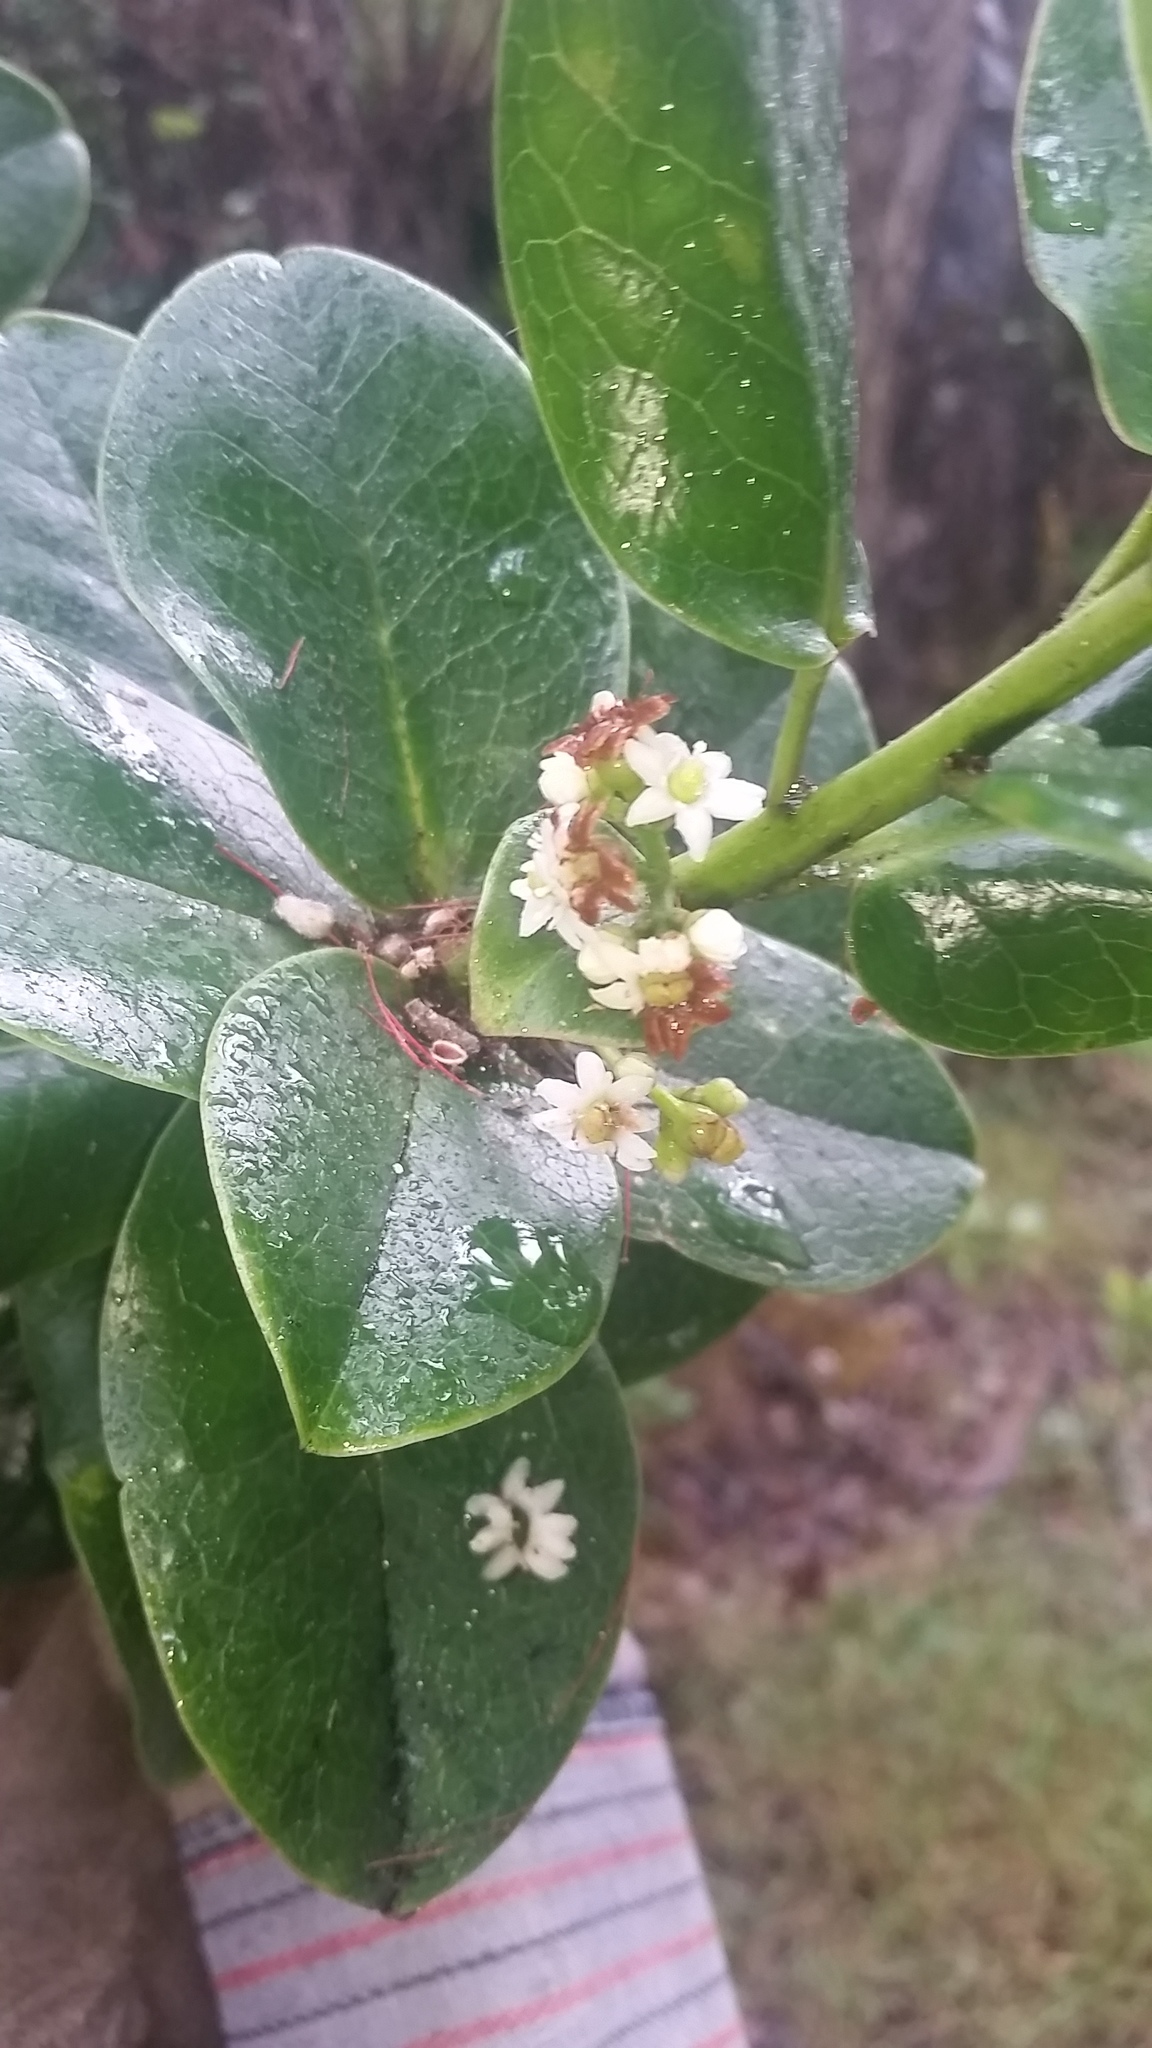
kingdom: Plantae
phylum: Tracheophyta
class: Magnoliopsida
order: Aquifoliales
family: Aquifoliaceae
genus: Ilex
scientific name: Ilex anomala
